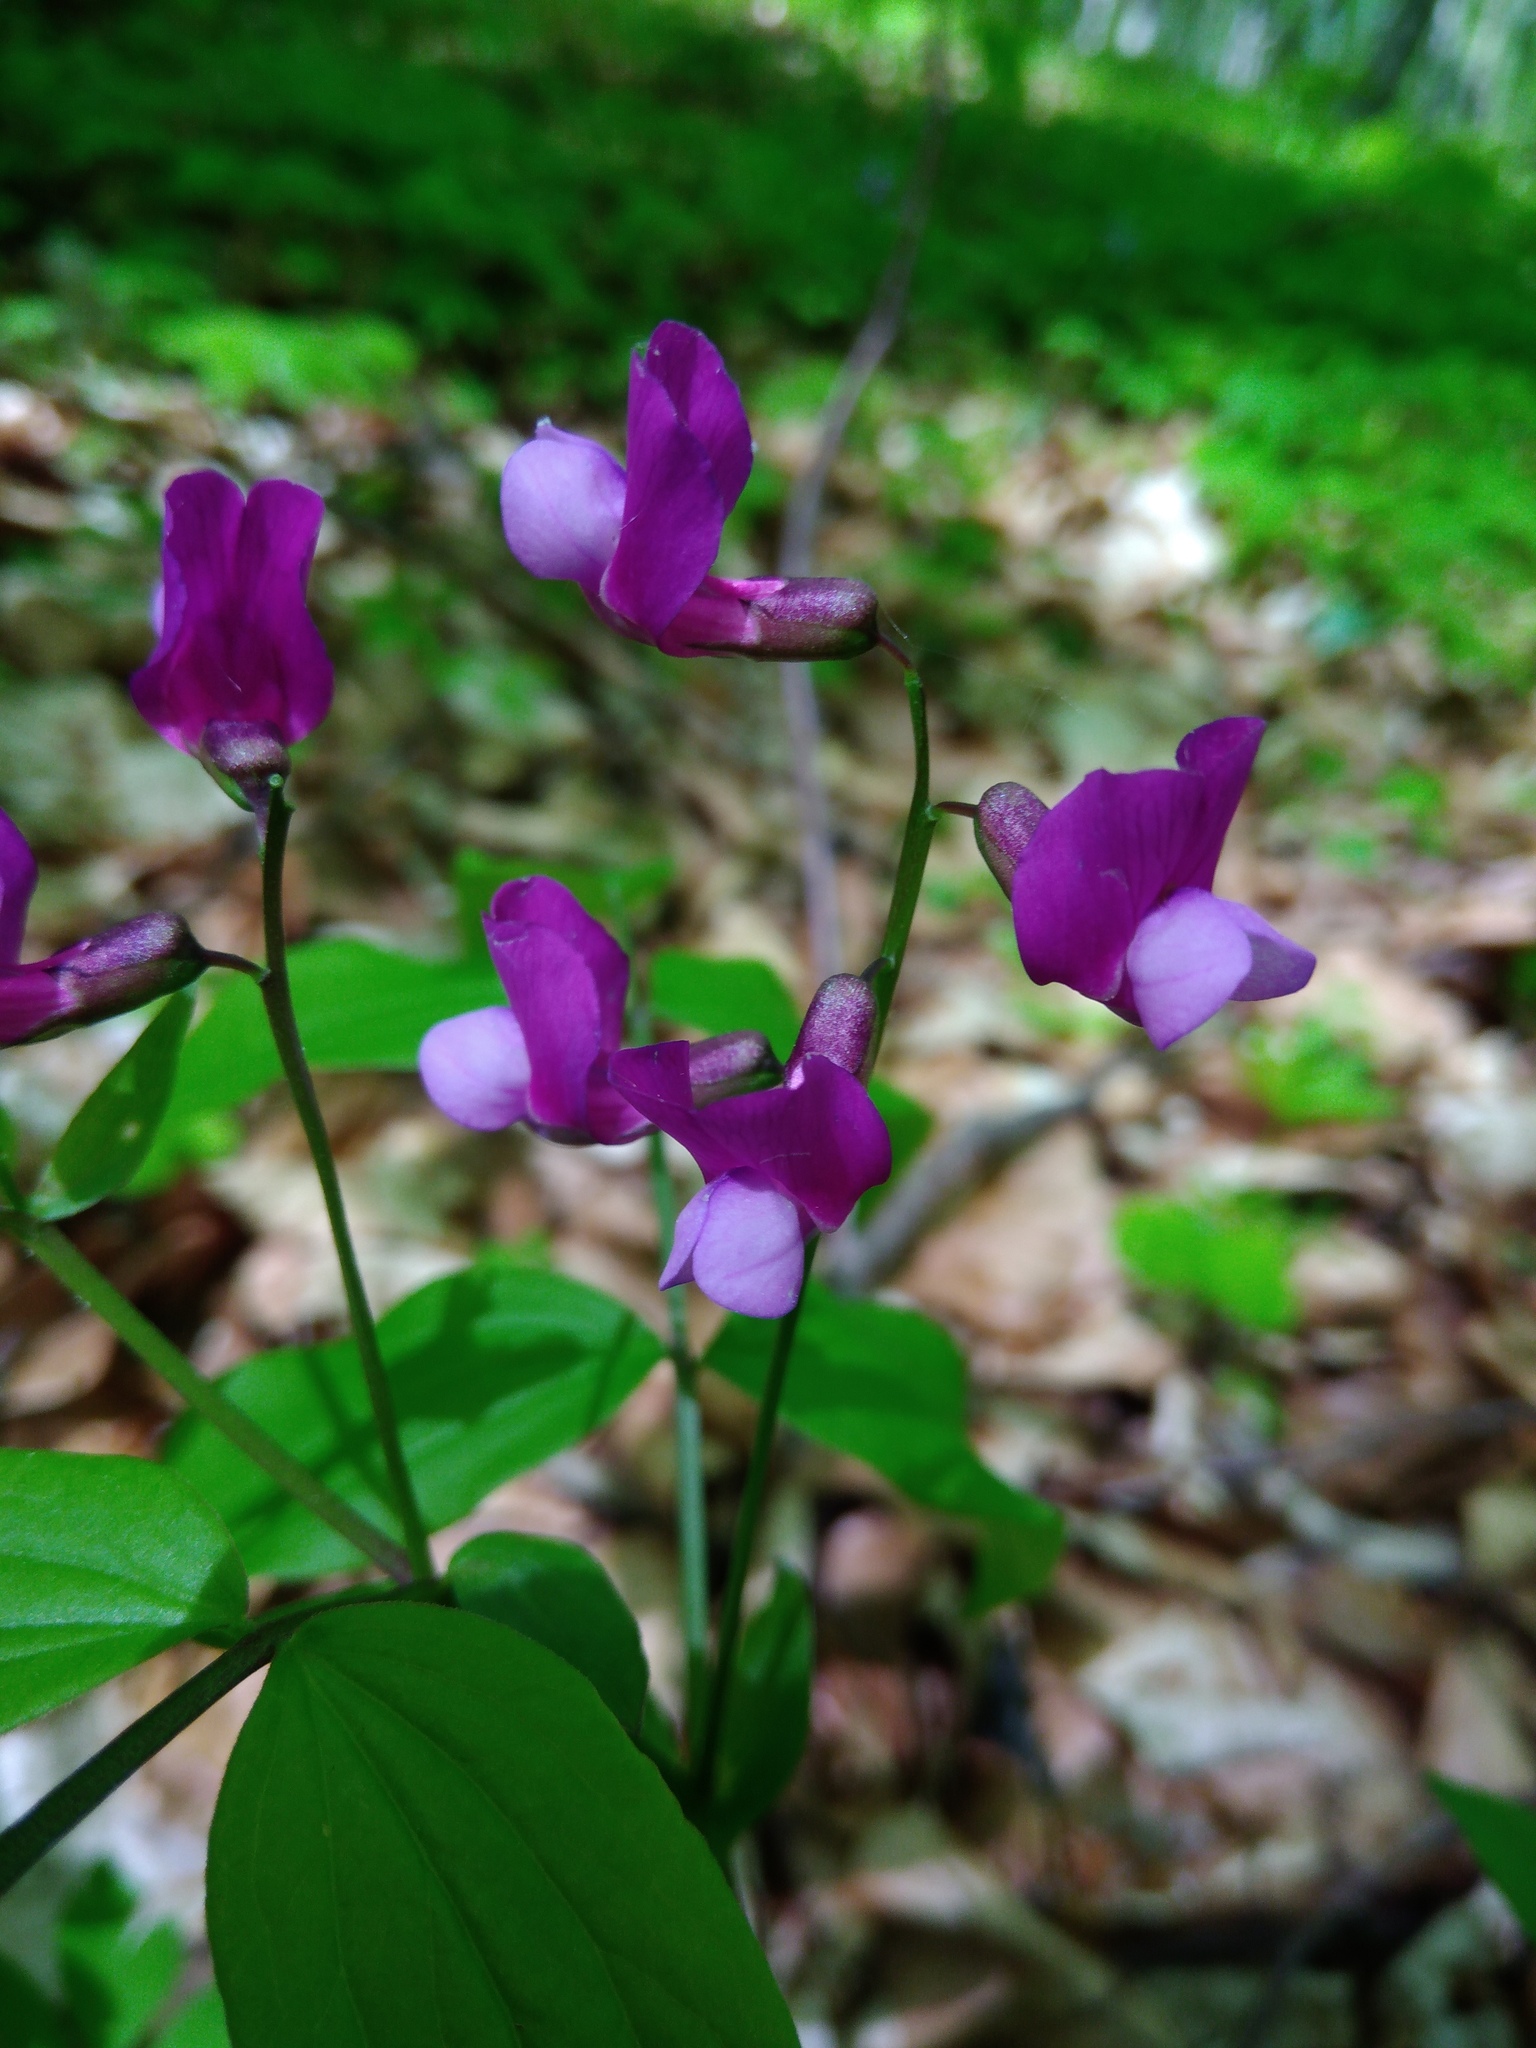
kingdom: Plantae
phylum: Tracheophyta
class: Magnoliopsida
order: Fabales
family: Fabaceae
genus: Lathyrus
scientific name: Lathyrus vernus
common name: Spring pea
